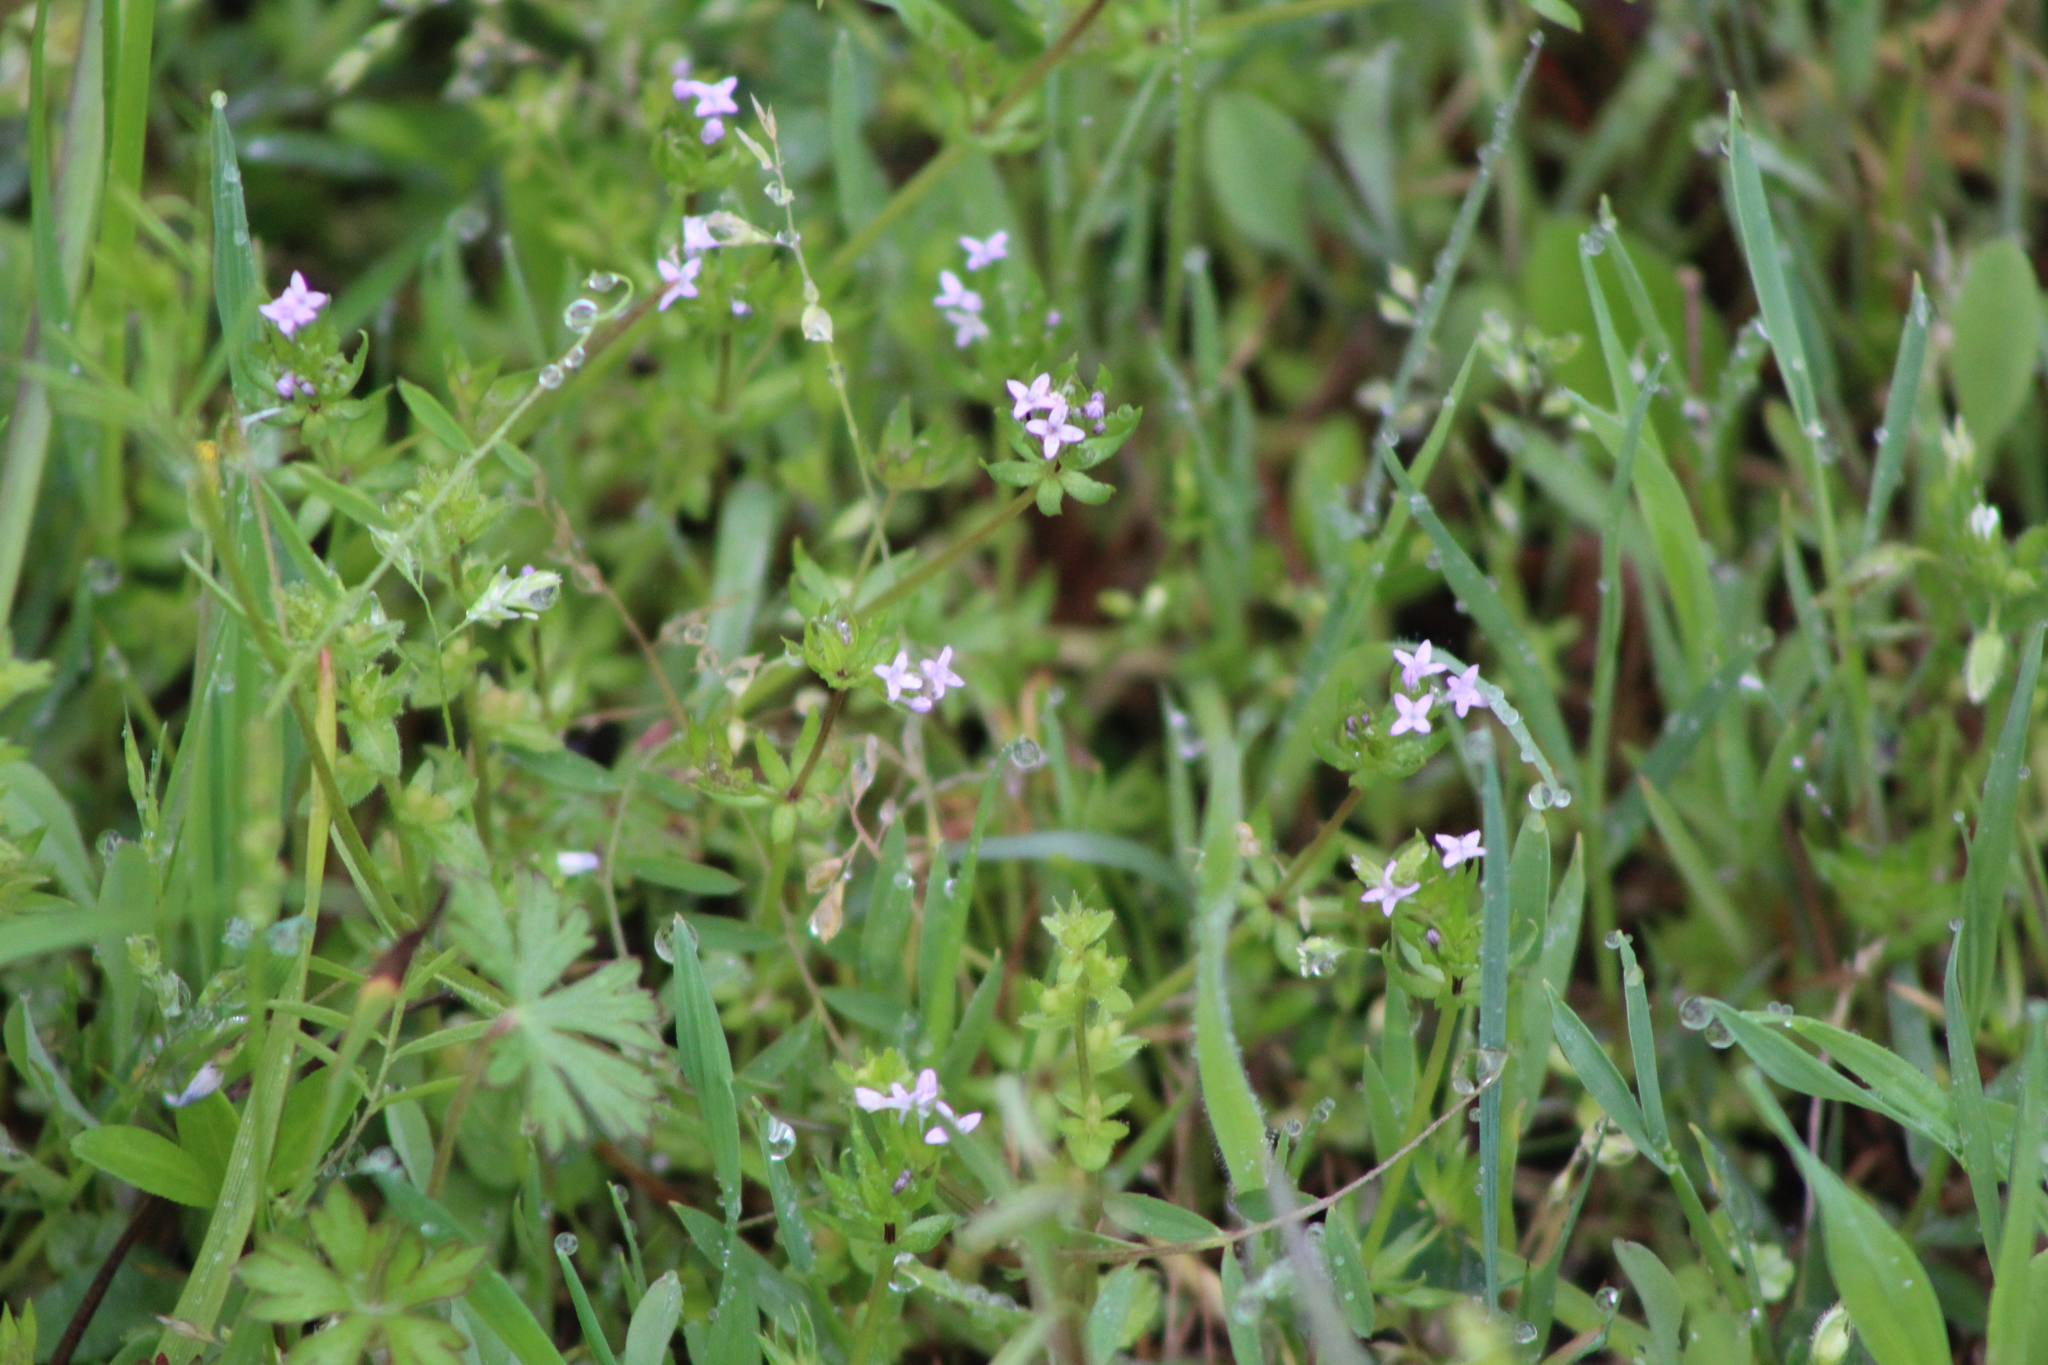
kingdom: Plantae
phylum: Tracheophyta
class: Magnoliopsida
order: Gentianales
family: Rubiaceae
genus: Sherardia
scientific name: Sherardia arvensis
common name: Field madder
